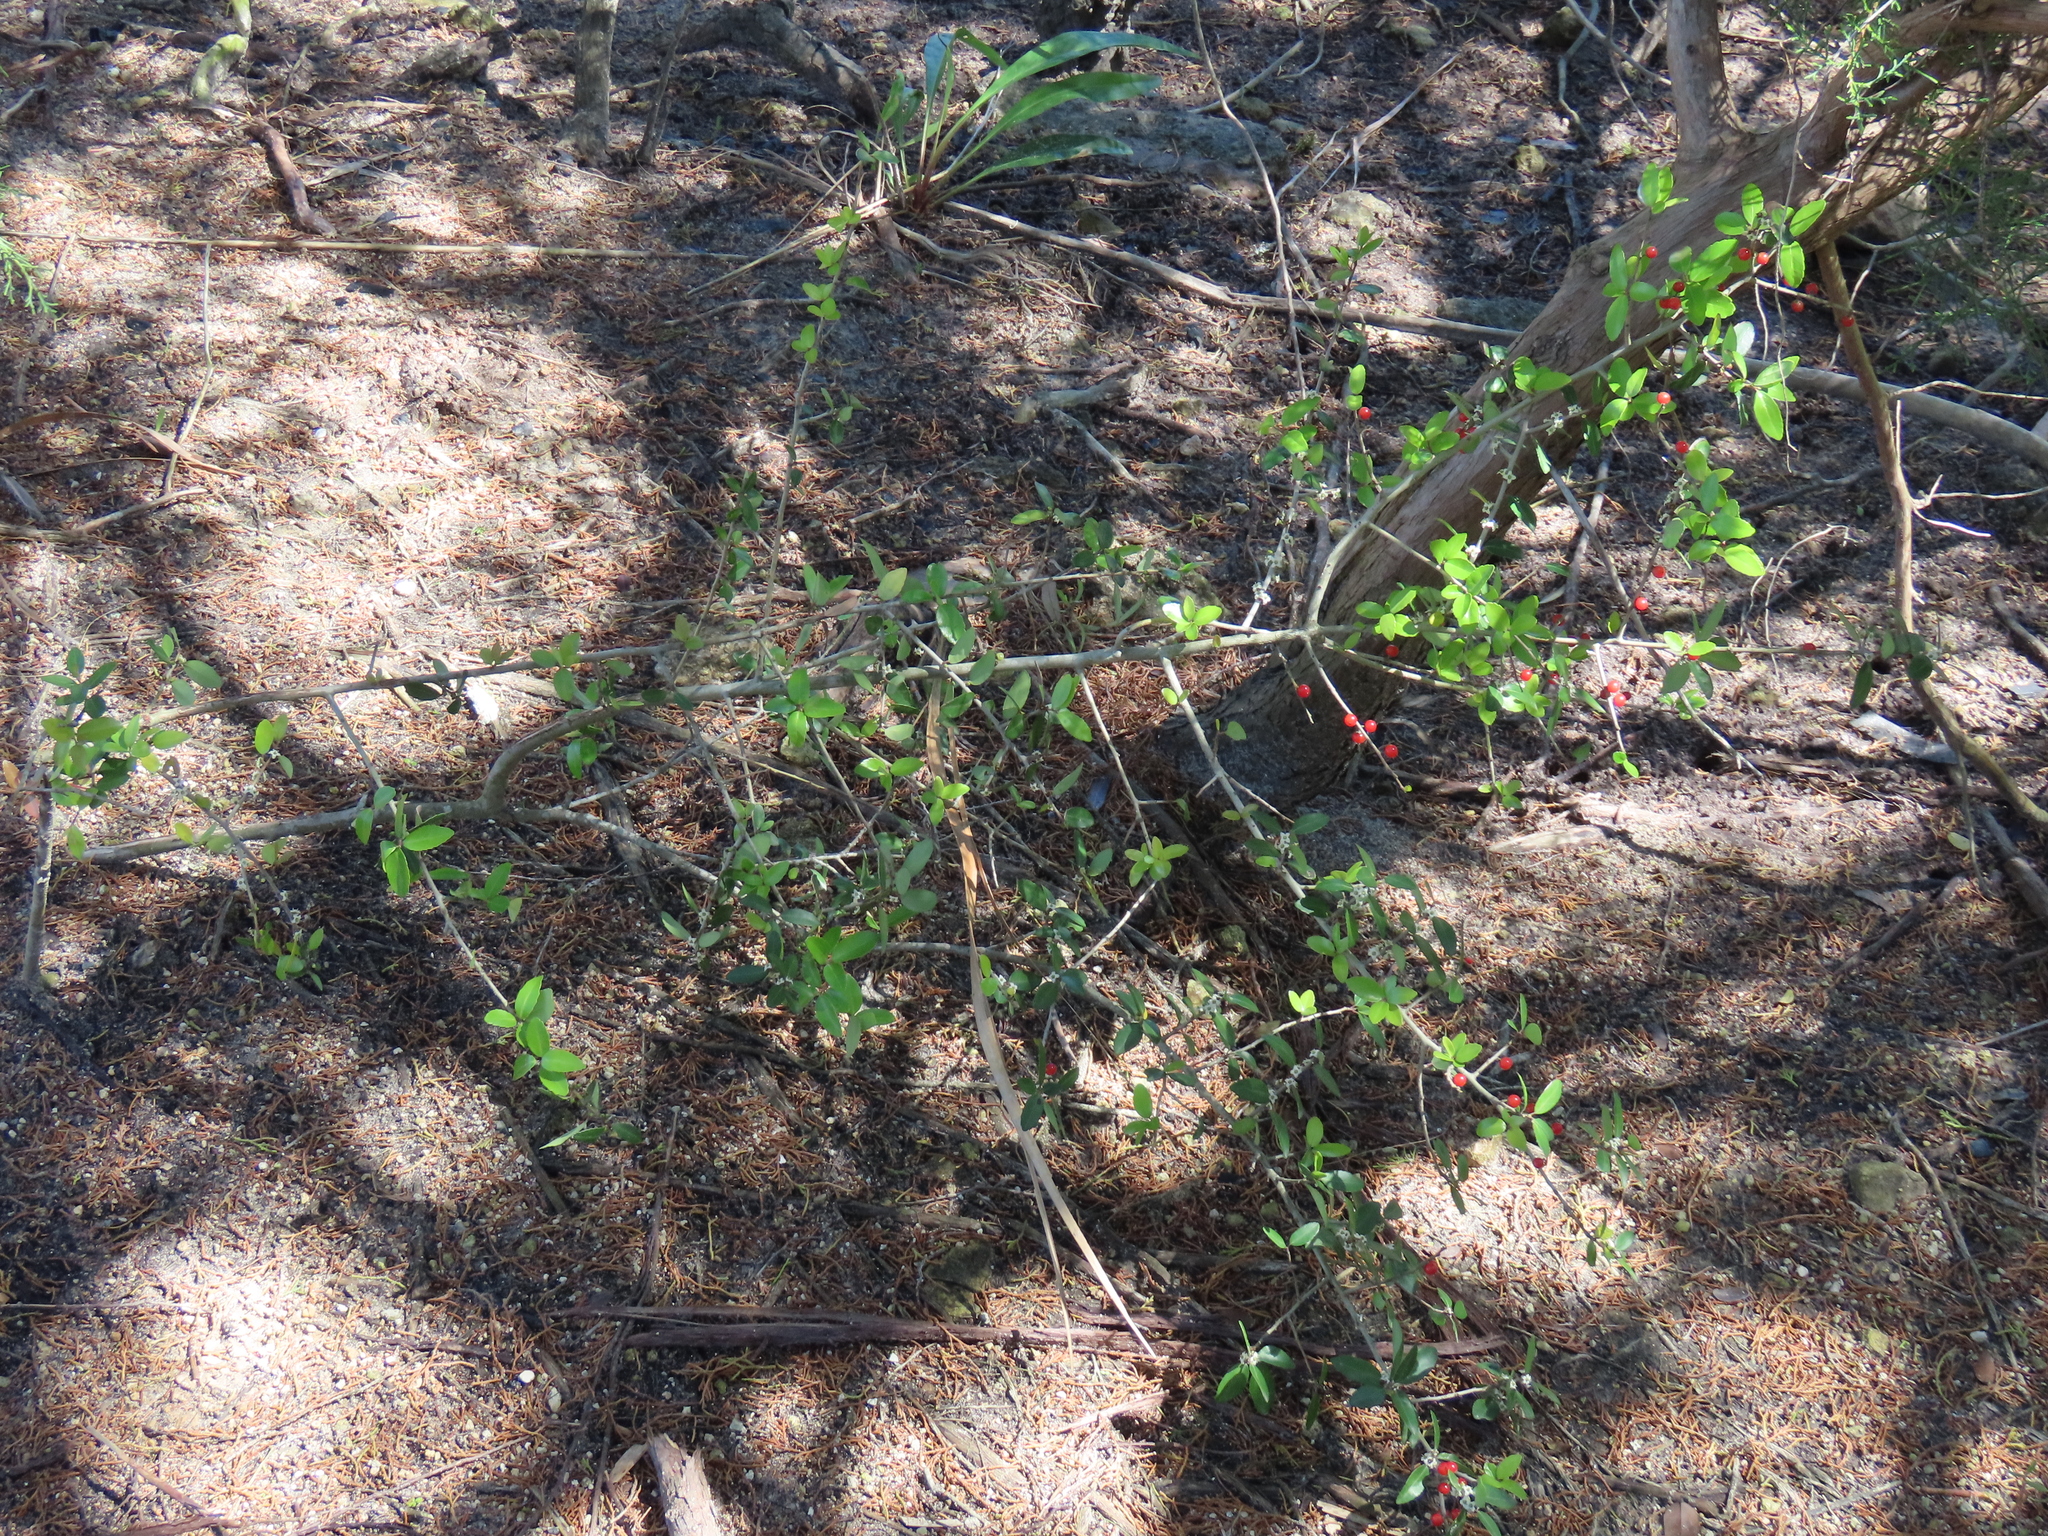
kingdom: Plantae
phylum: Tracheophyta
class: Magnoliopsida
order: Aquifoliales
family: Aquifoliaceae
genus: Ilex
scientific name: Ilex vomitoria
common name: Yaupon holly
